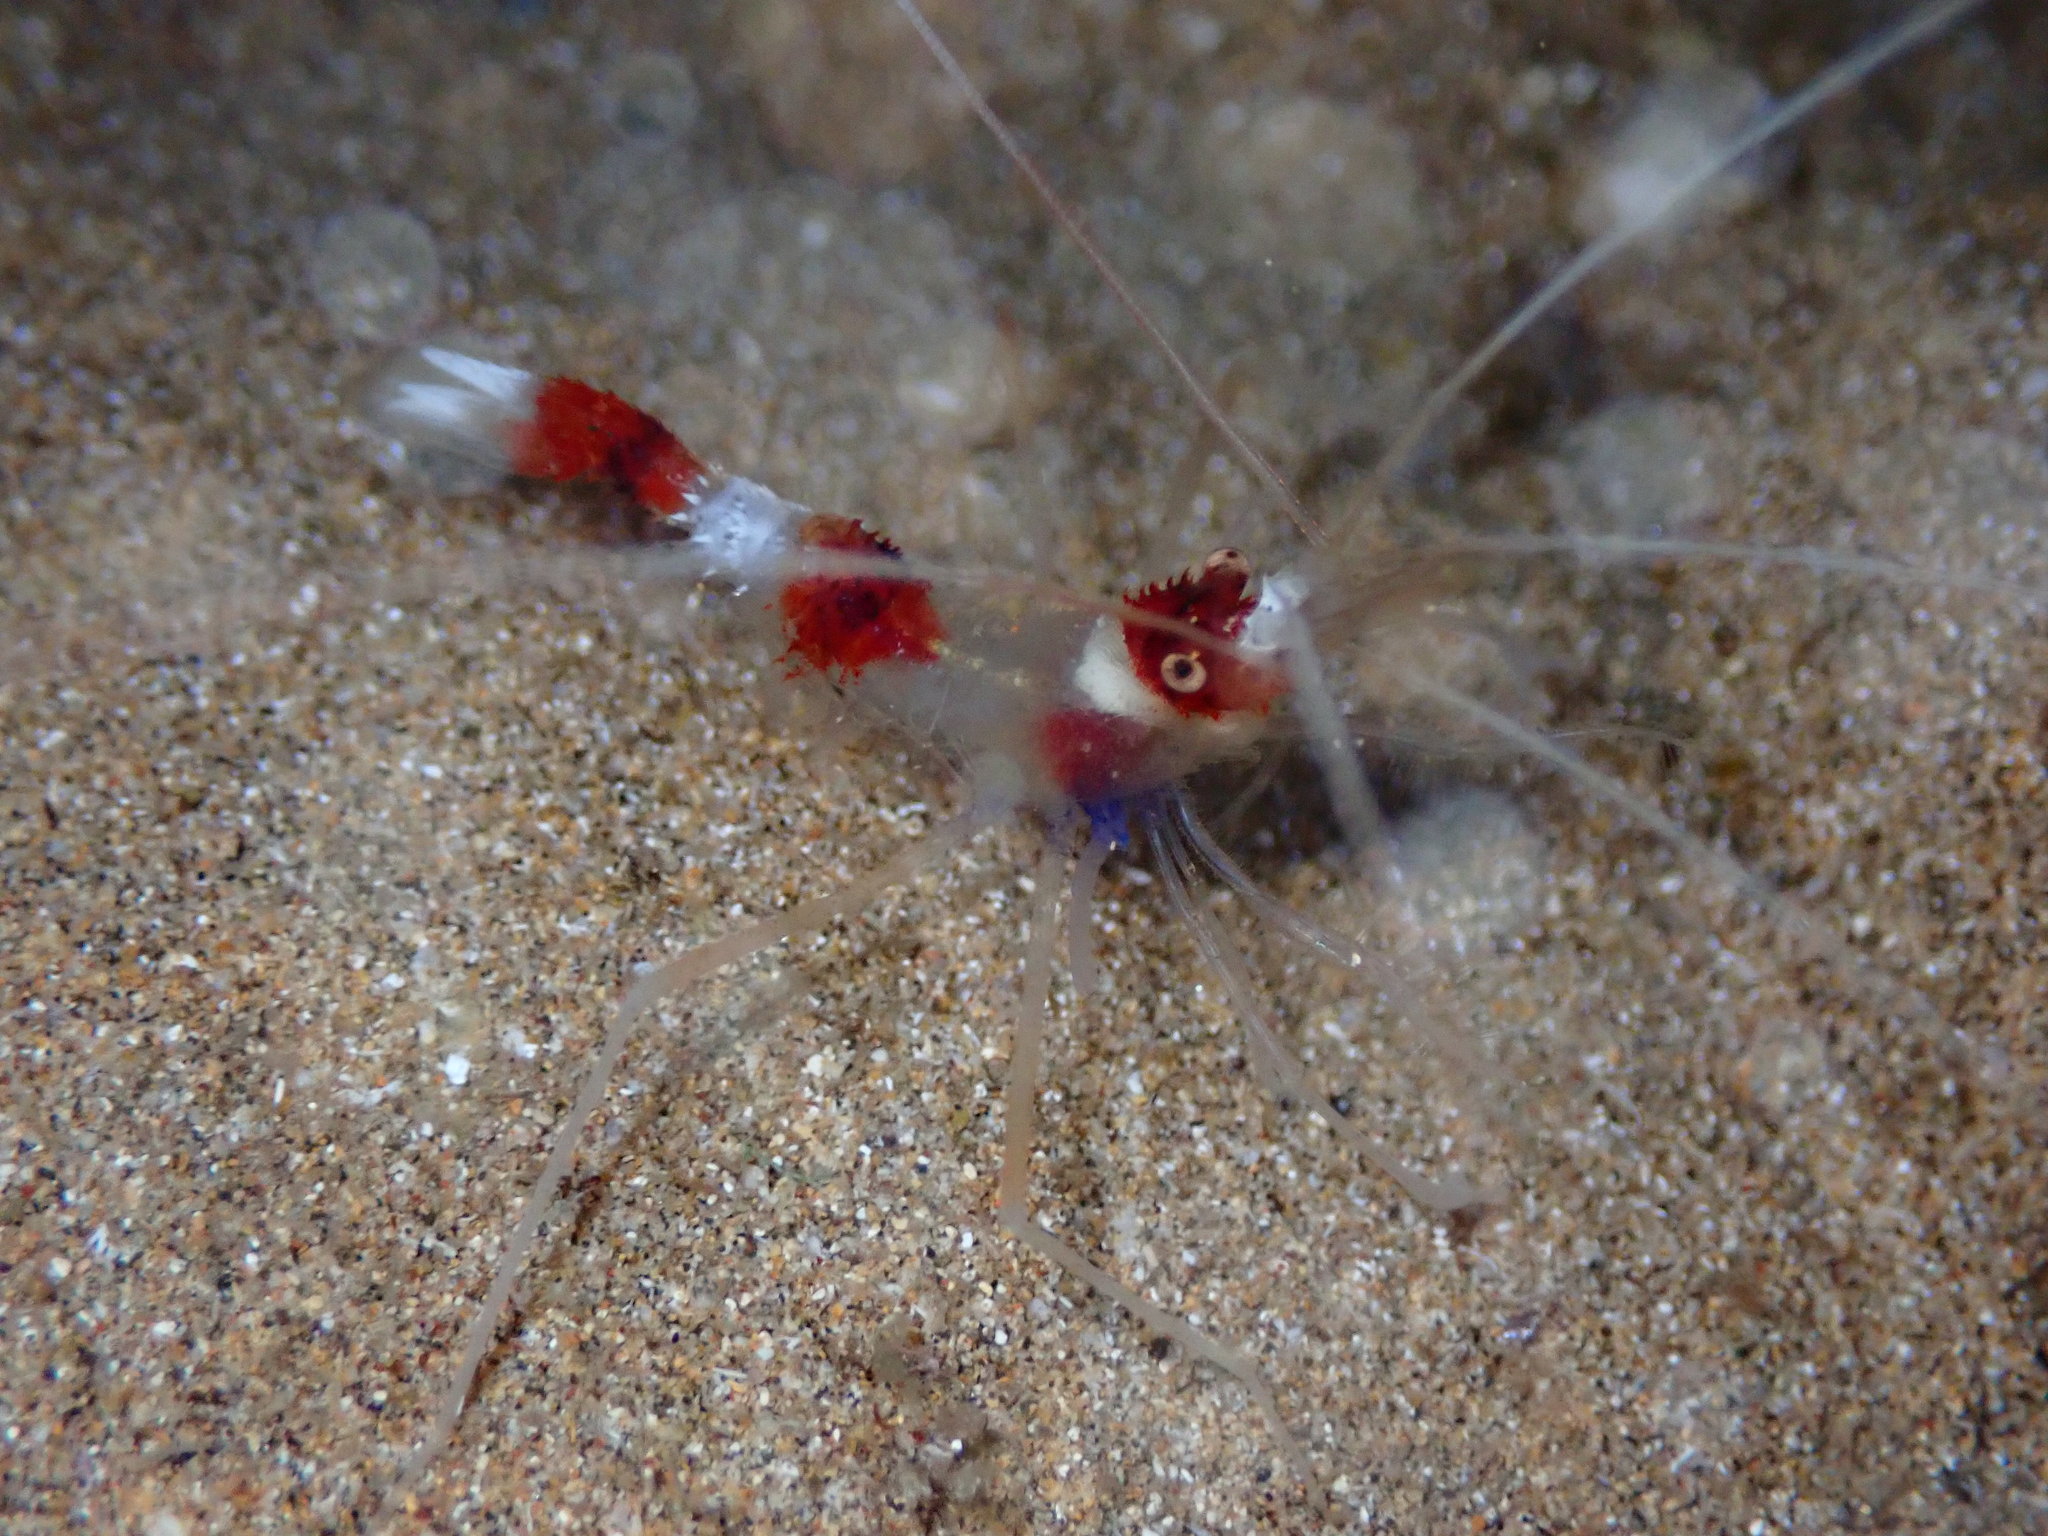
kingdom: Animalia
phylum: Arthropoda
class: Malacostraca
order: Decapoda
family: Stenopodidae
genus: Stenopus
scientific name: Stenopus hispidus
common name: Banded coral shrimp
